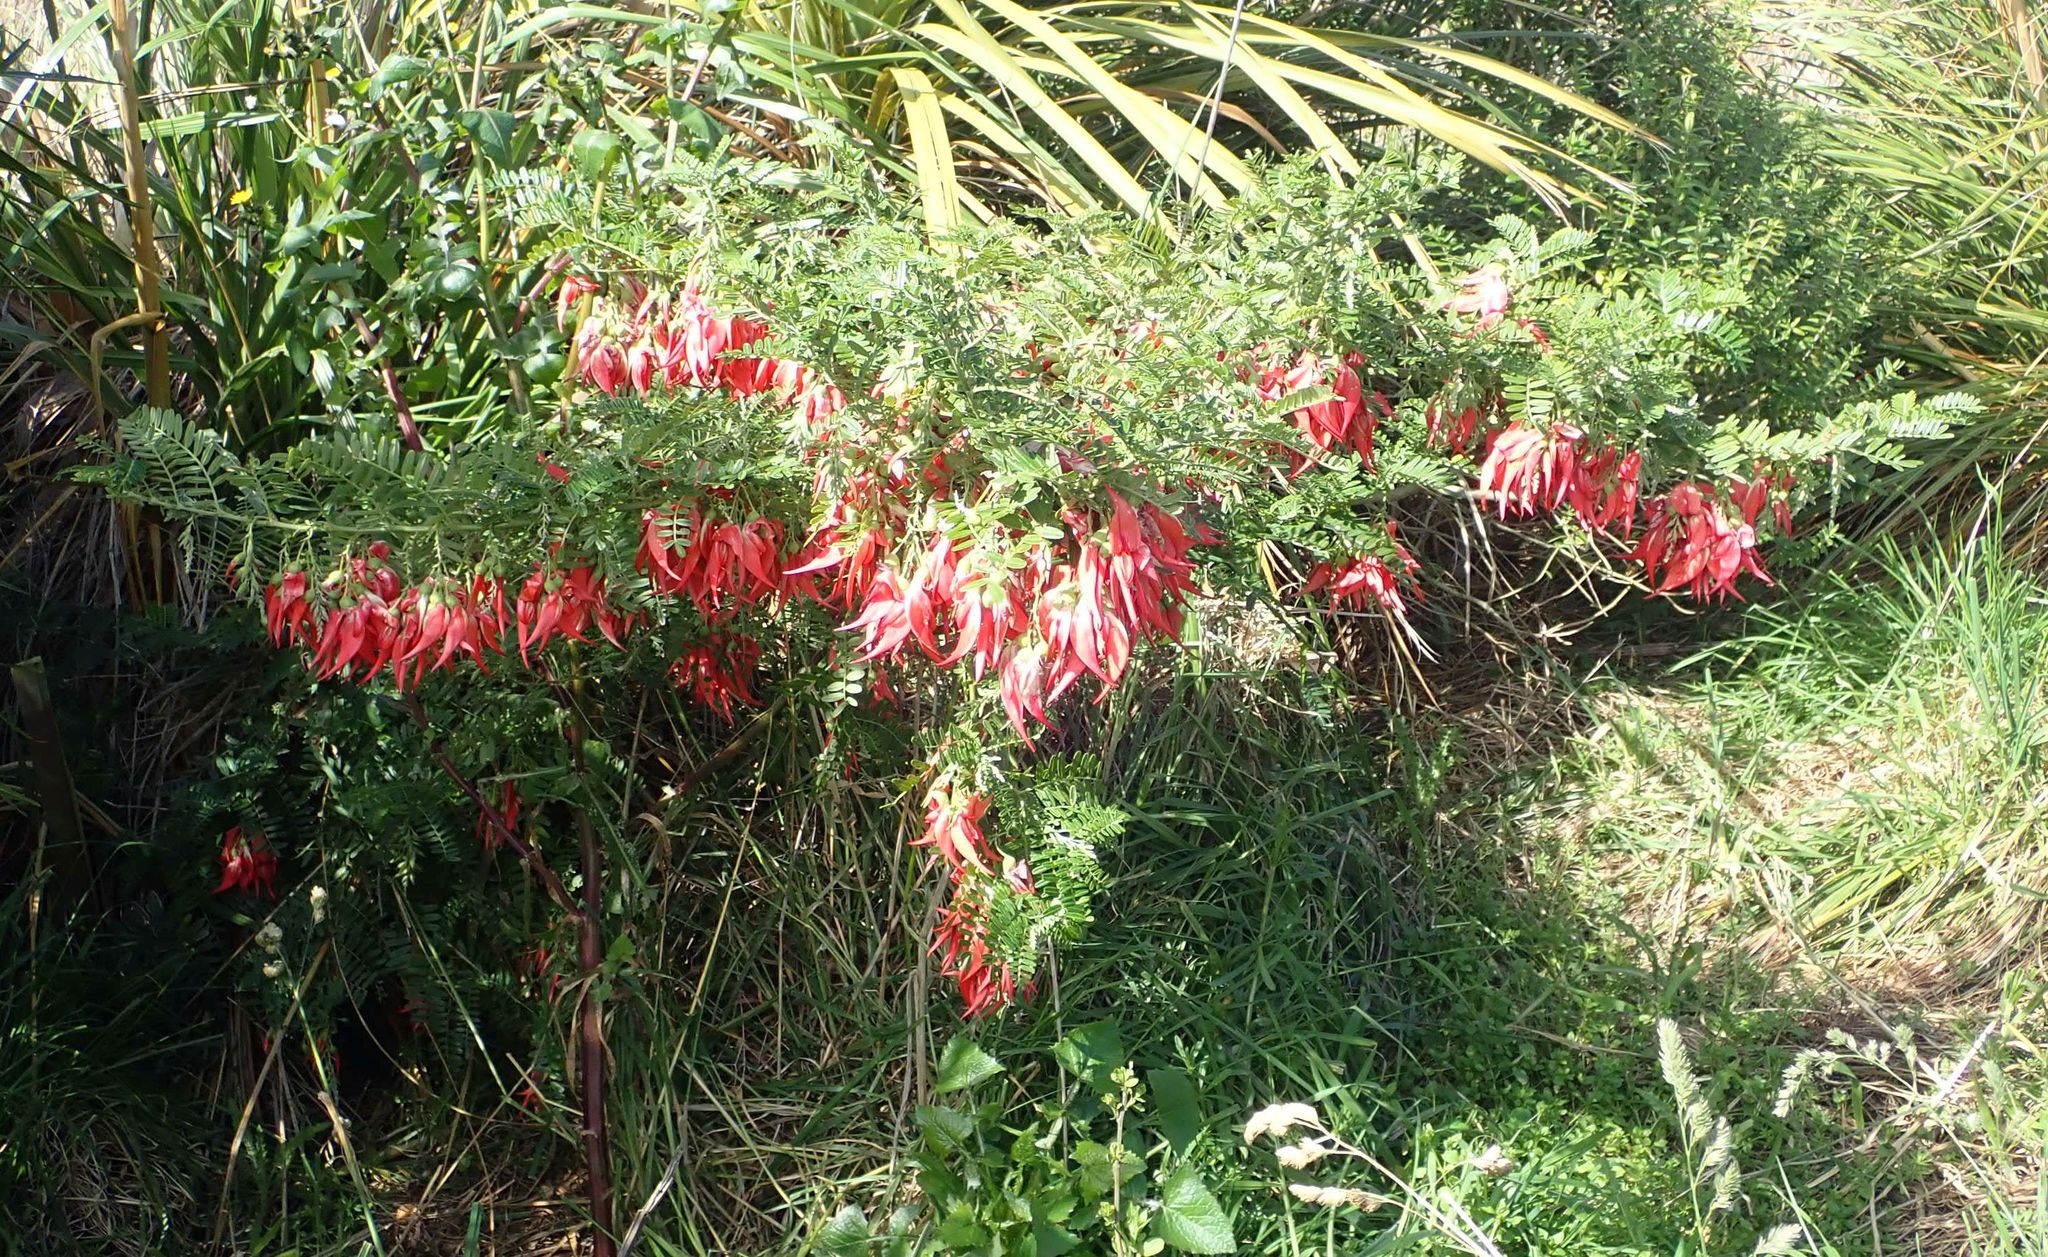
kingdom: Plantae
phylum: Tracheophyta
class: Magnoliopsida
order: Fabales
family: Fabaceae
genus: Clianthus
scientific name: Clianthus puniceus
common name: Kaka-beak
